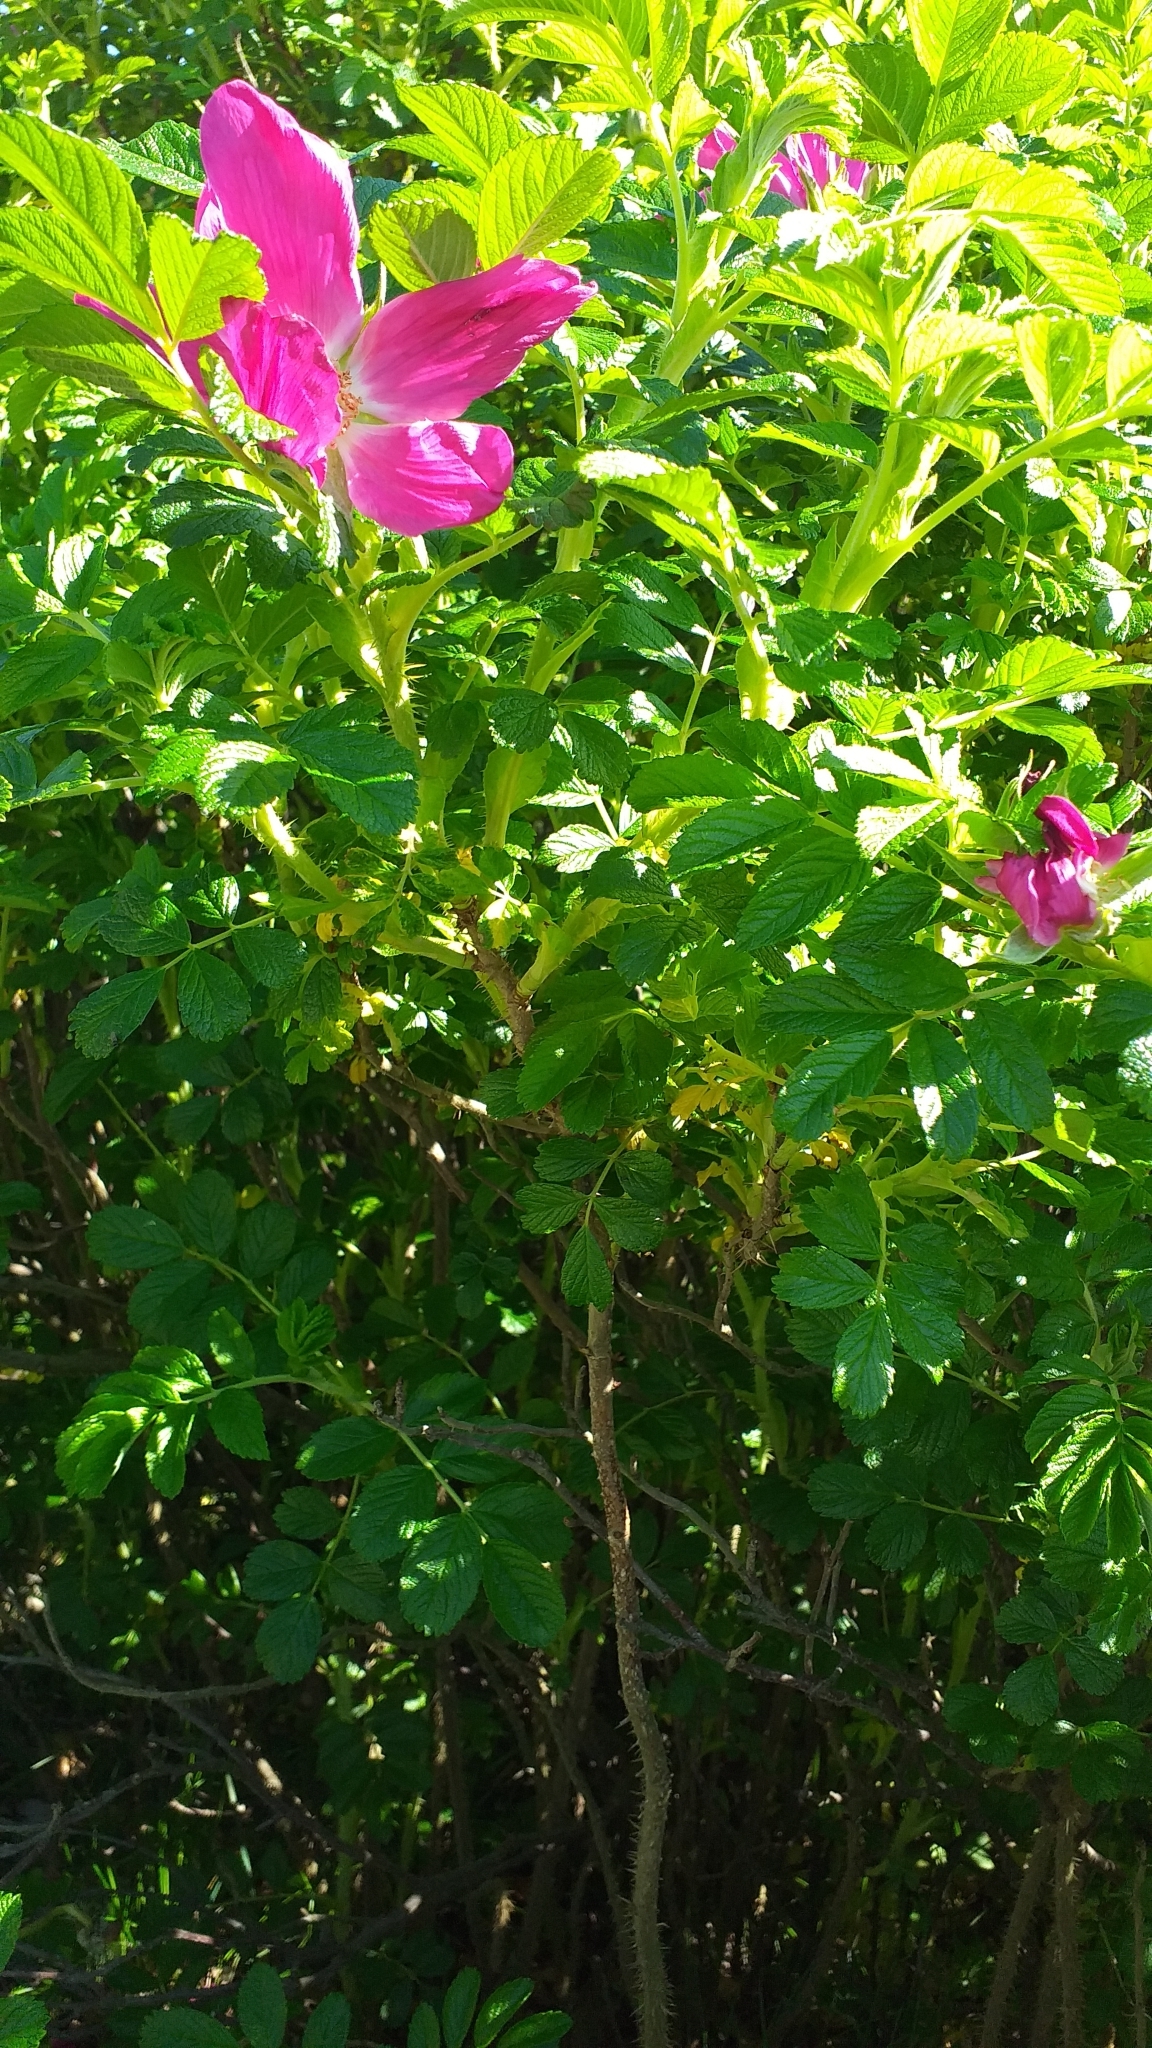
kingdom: Plantae
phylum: Tracheophyta
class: Magnoliopsida
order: Rosales
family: Rosaceae
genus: Rosa
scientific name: Rosa rugosa
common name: Japanese rose
